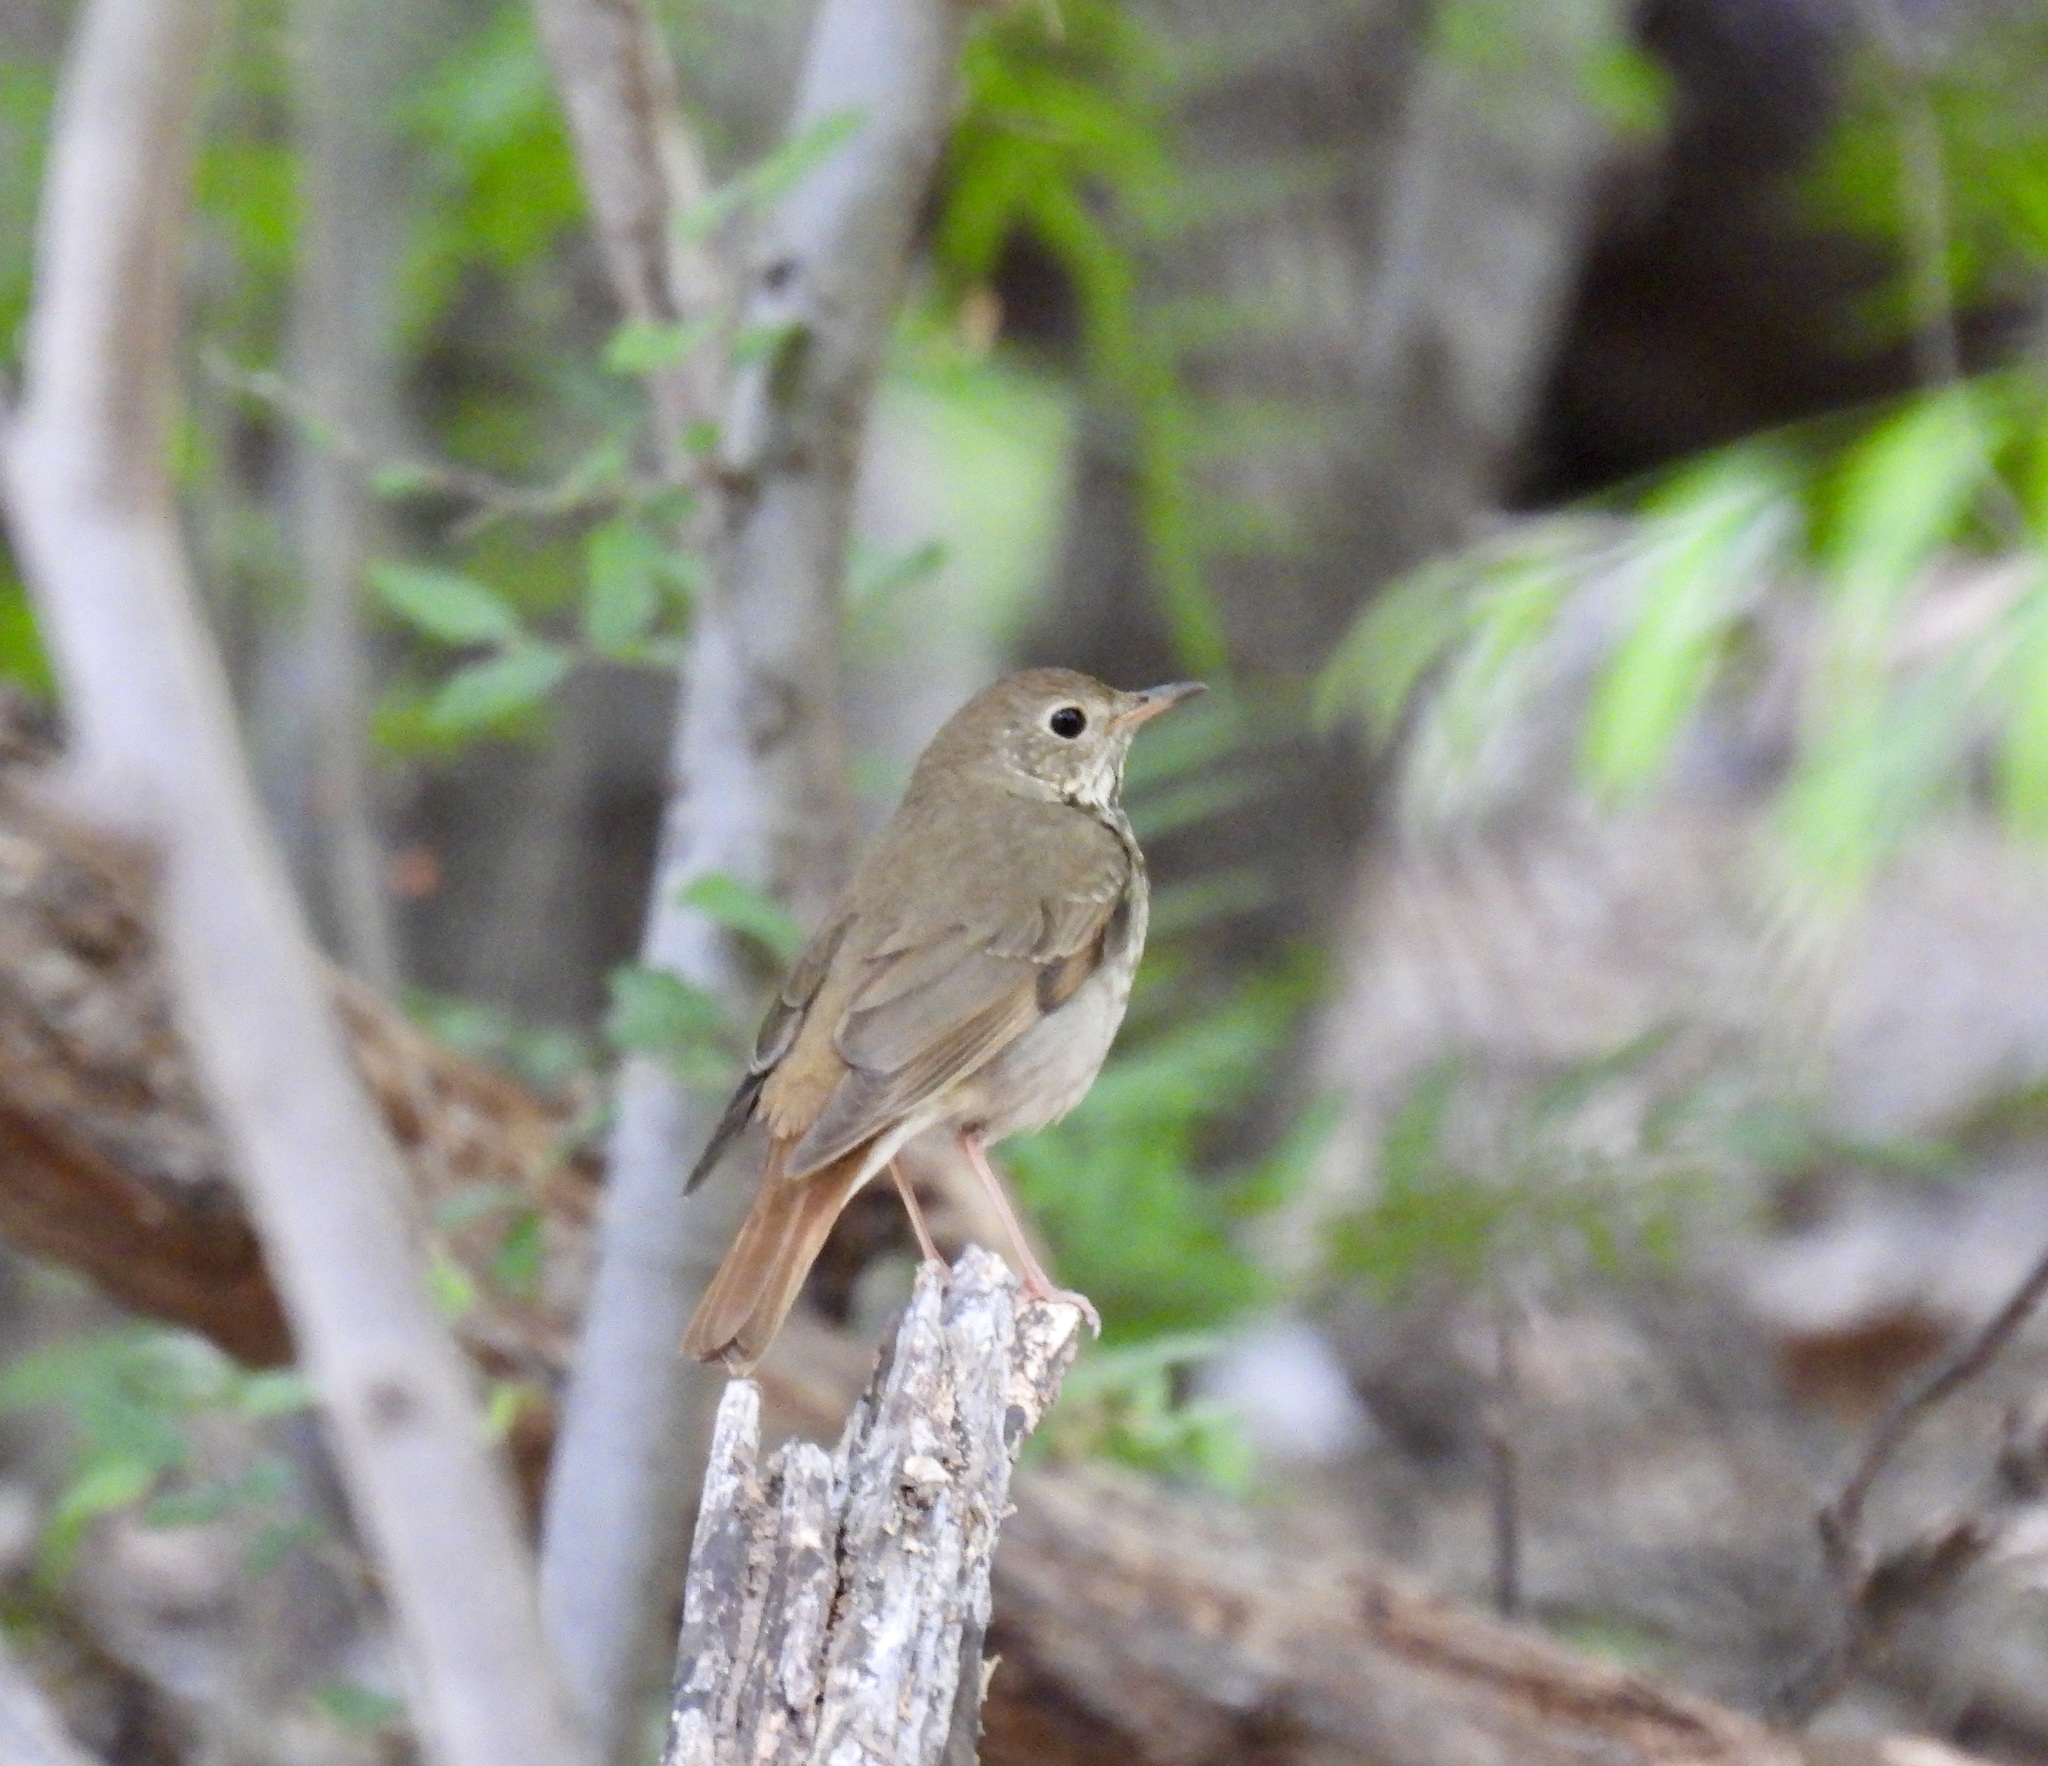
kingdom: Animalia
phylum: Chordata
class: Aves
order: Passeriformes
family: Turdidae
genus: Catharus
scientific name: Catharus guttatus
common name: Hermit thrush
